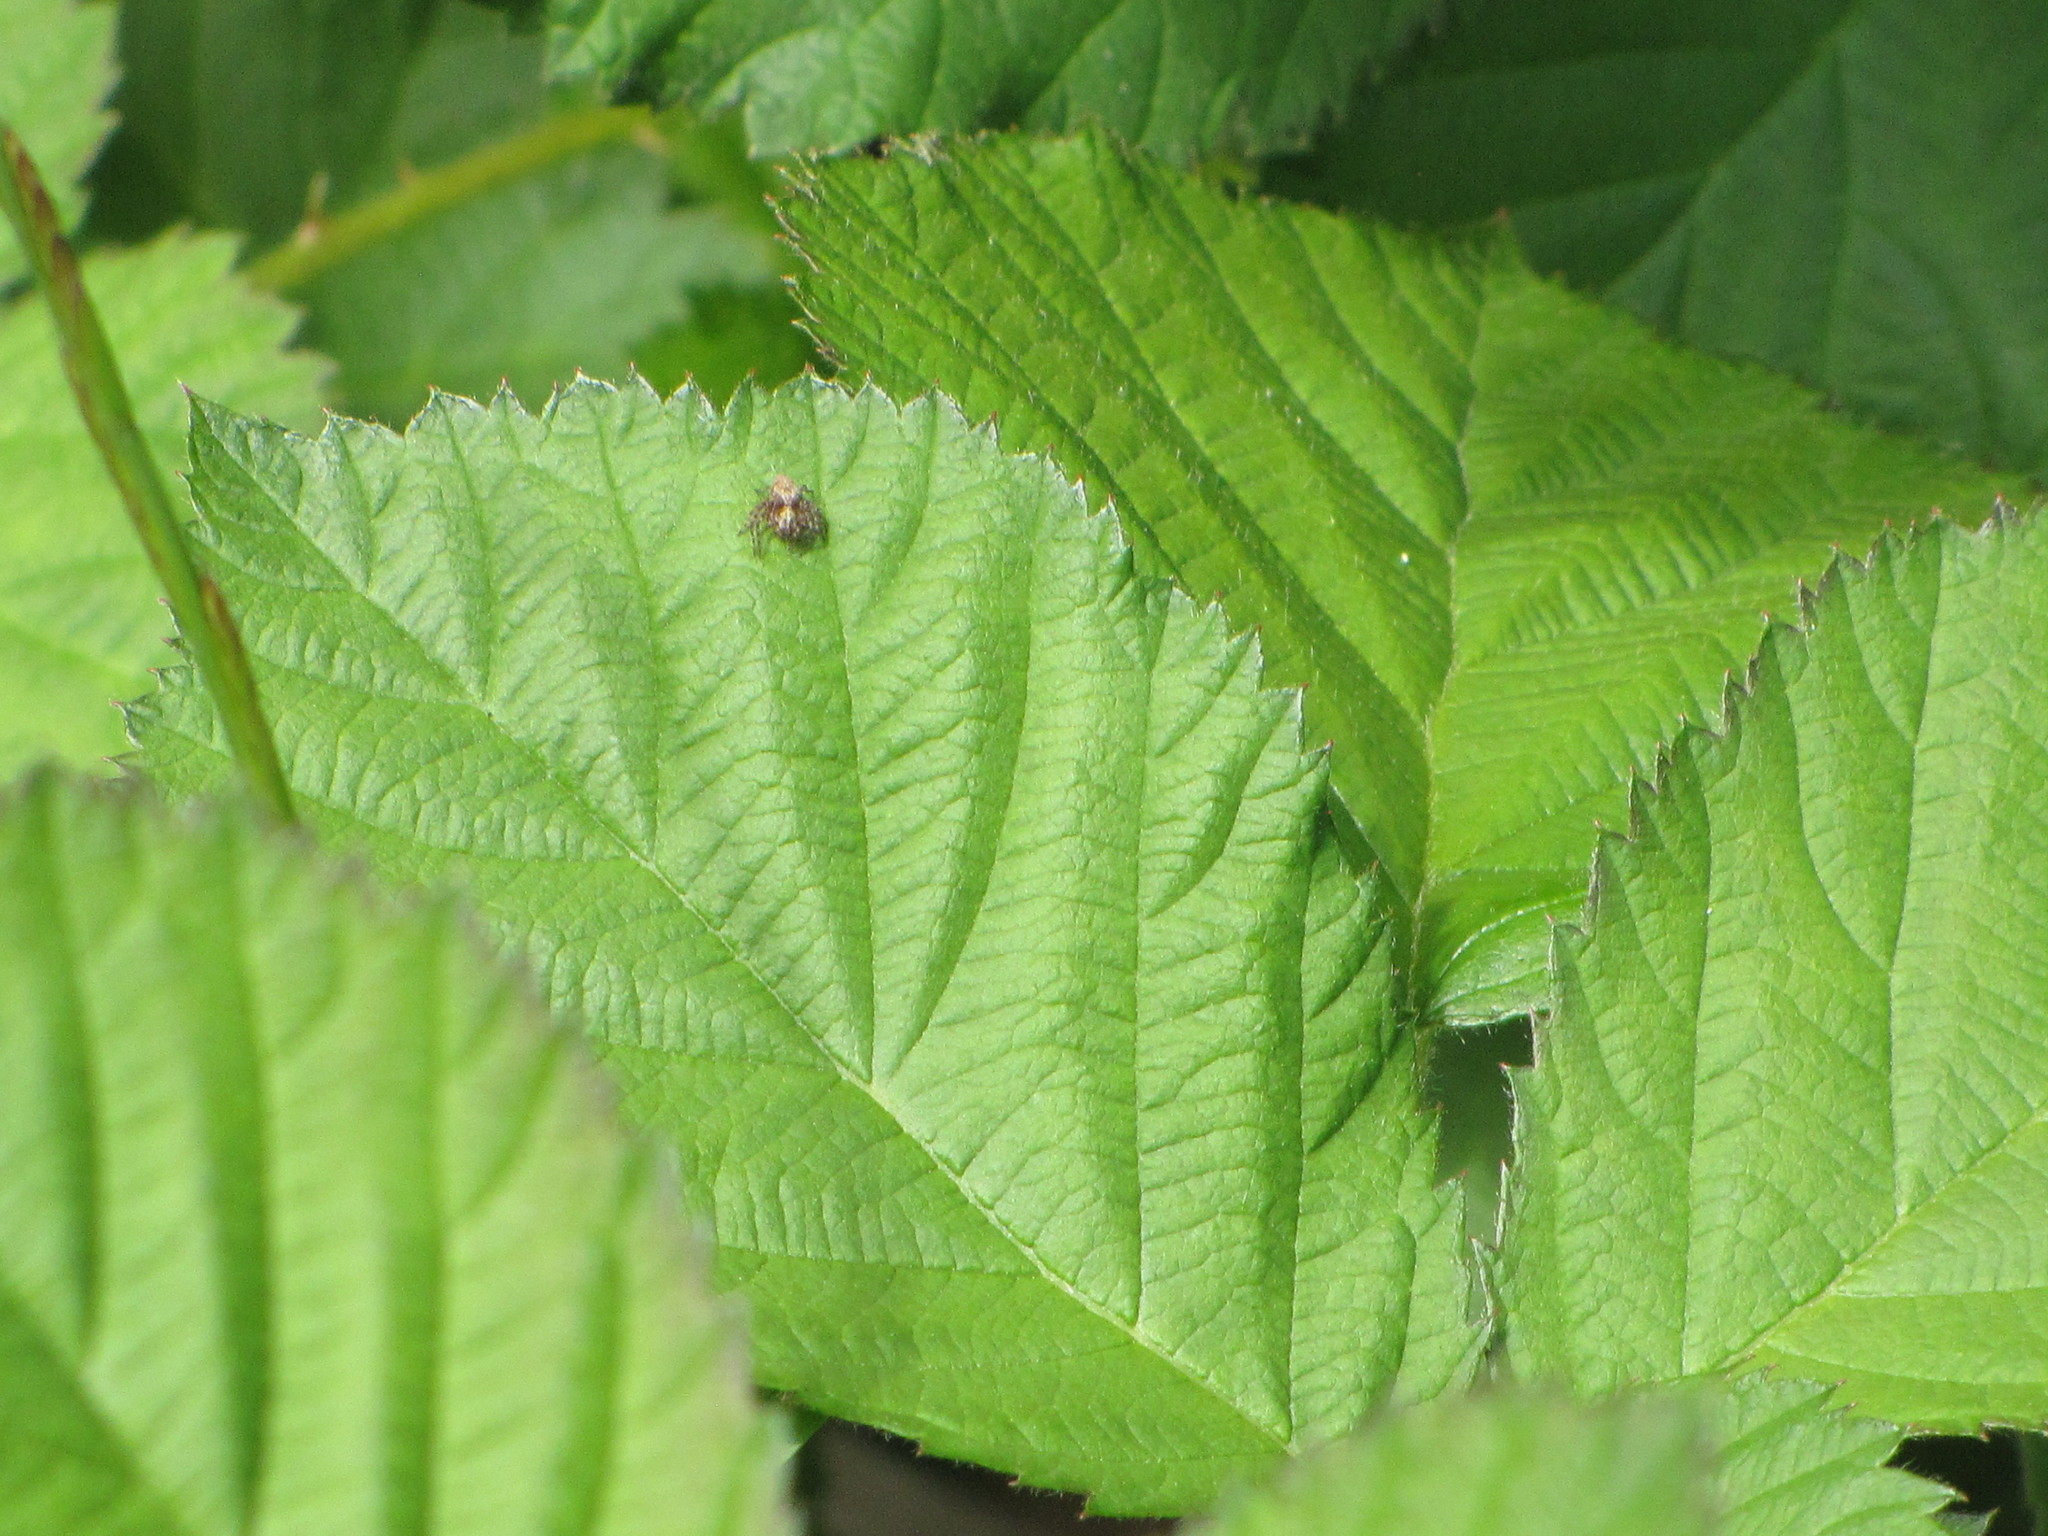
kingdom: Animalia
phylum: Arthropoda
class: Arachnida
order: Araneae
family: Oxyopidae
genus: Oxyopes
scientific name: Oxyopes scalaris
